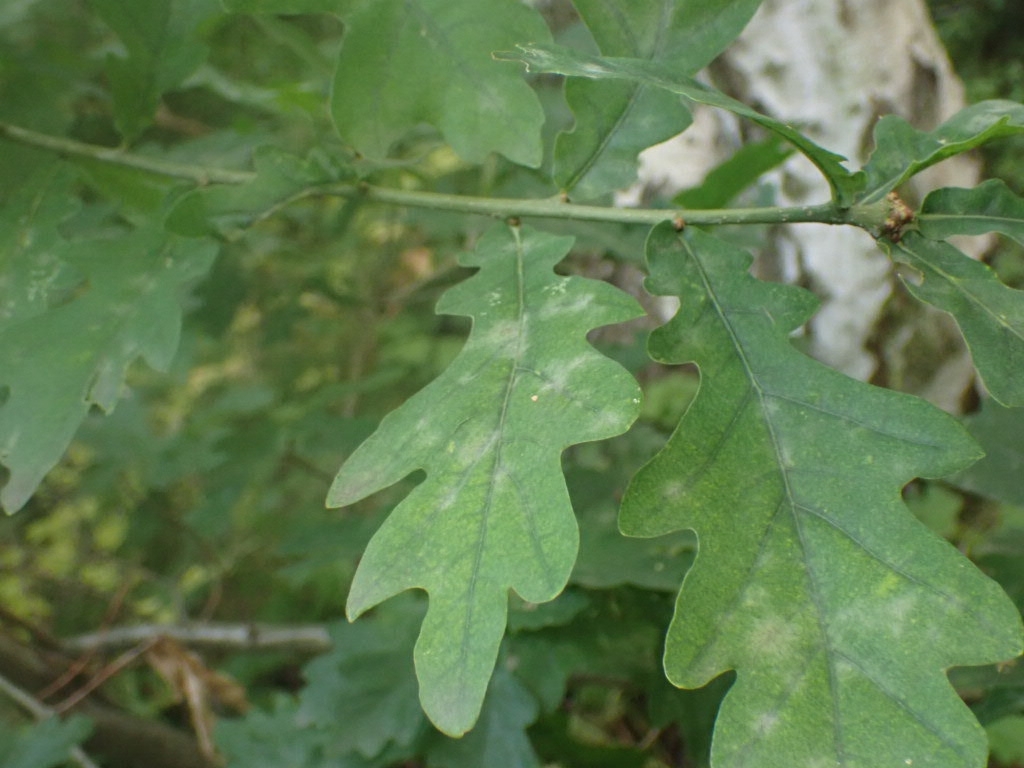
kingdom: Plantae
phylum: Tracheophyta
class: Magnoliopsida
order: Fagales
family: Fagaceae
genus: Quercus
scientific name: Quercus robur
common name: Pedunculate oak
